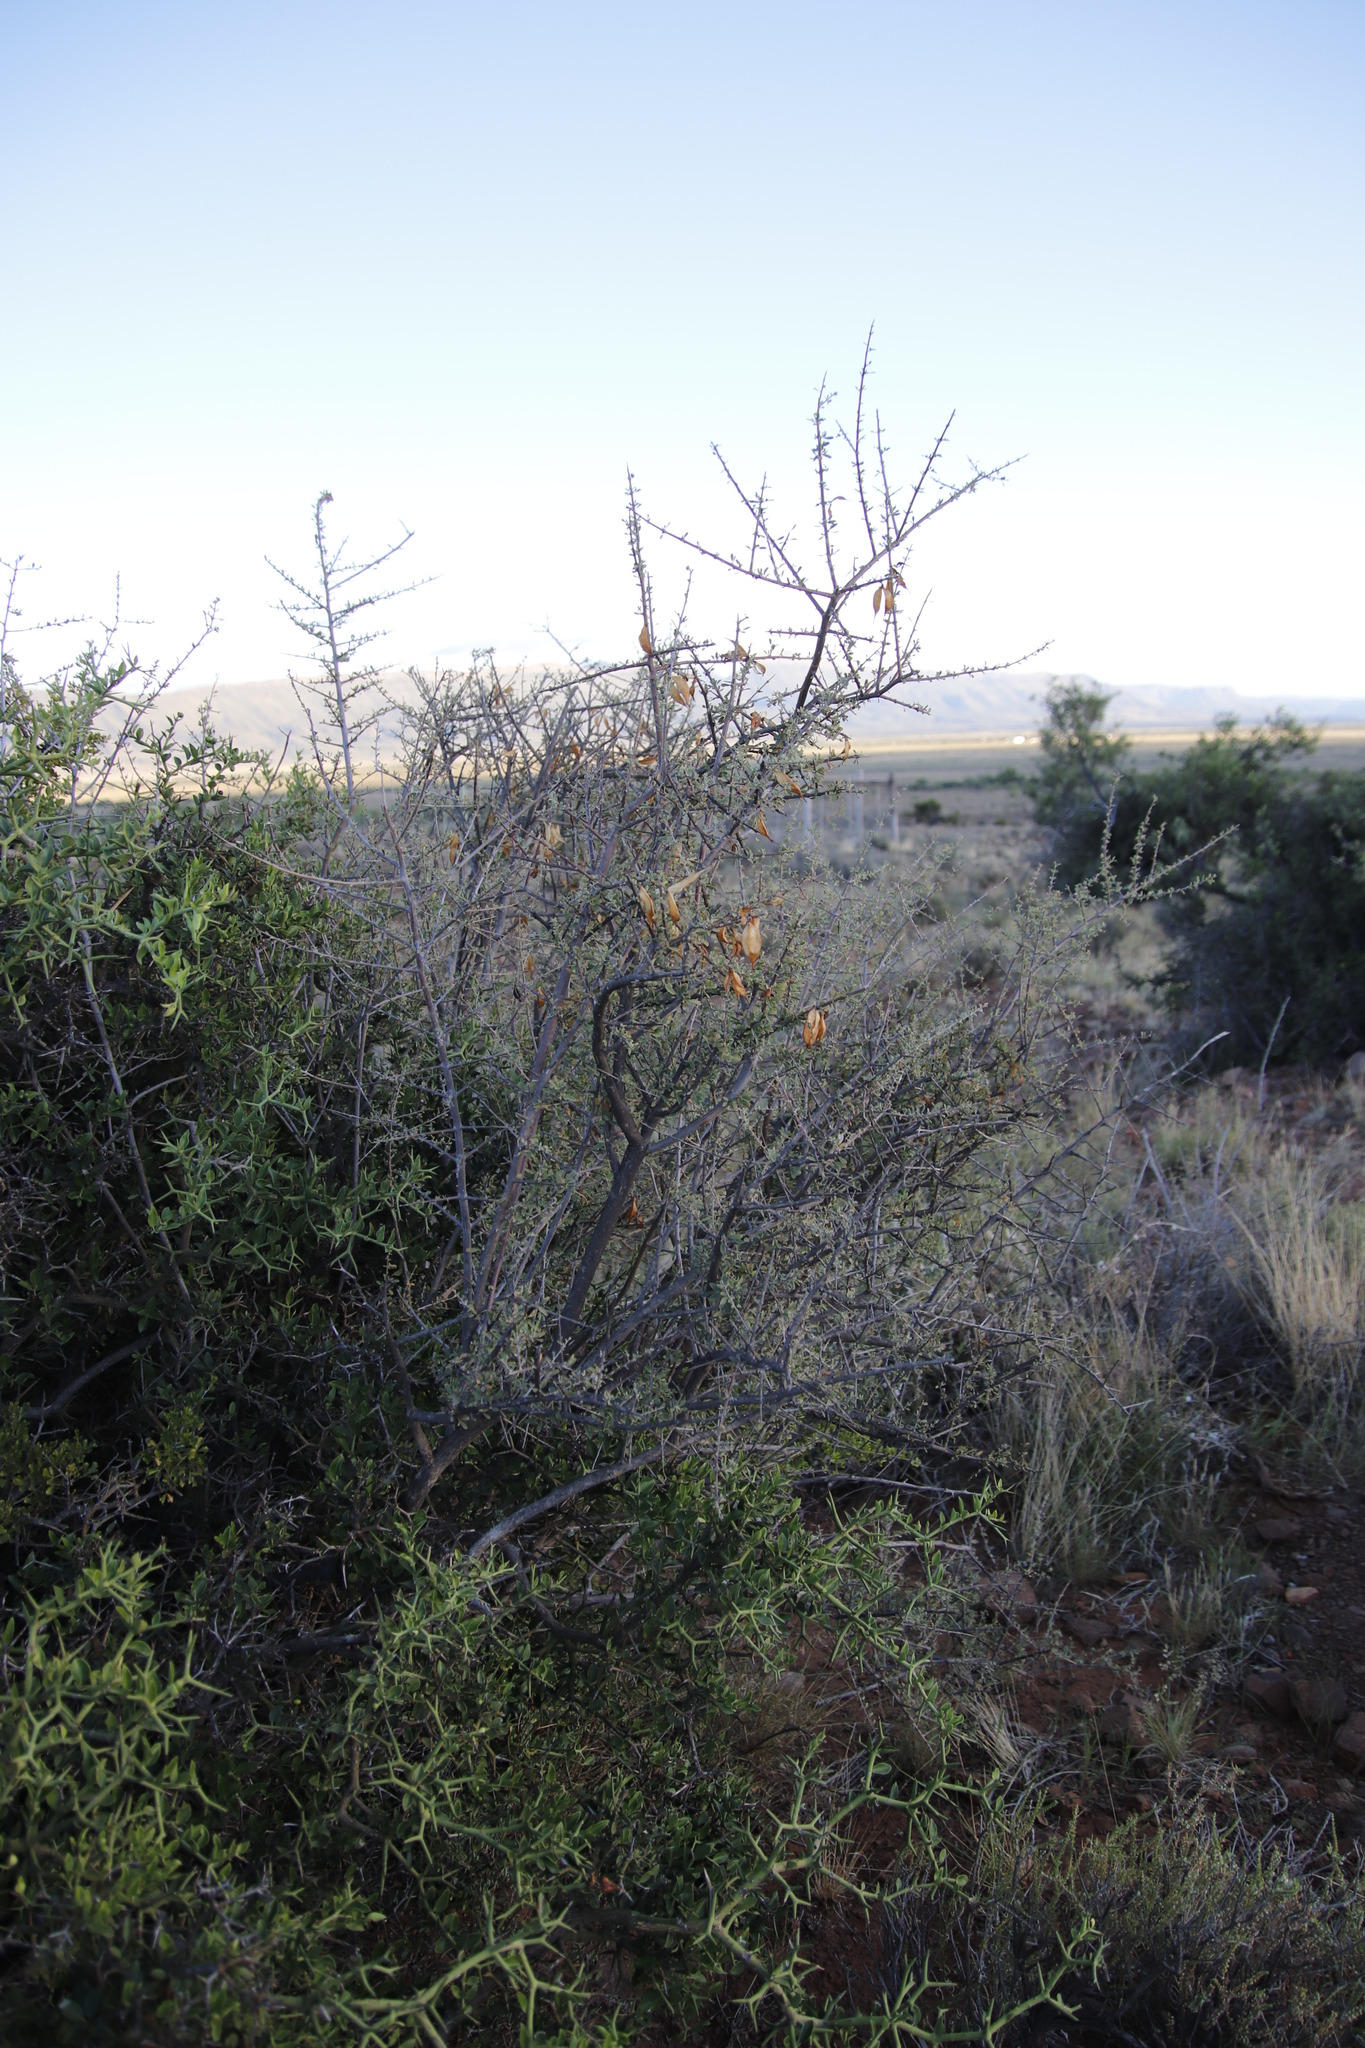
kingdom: Plantae
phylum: Tracheophyta
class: Magnoliopsida
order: Lamiales
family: Bignoniaceae
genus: Rhigozum
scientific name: Rhigozum obovatum
